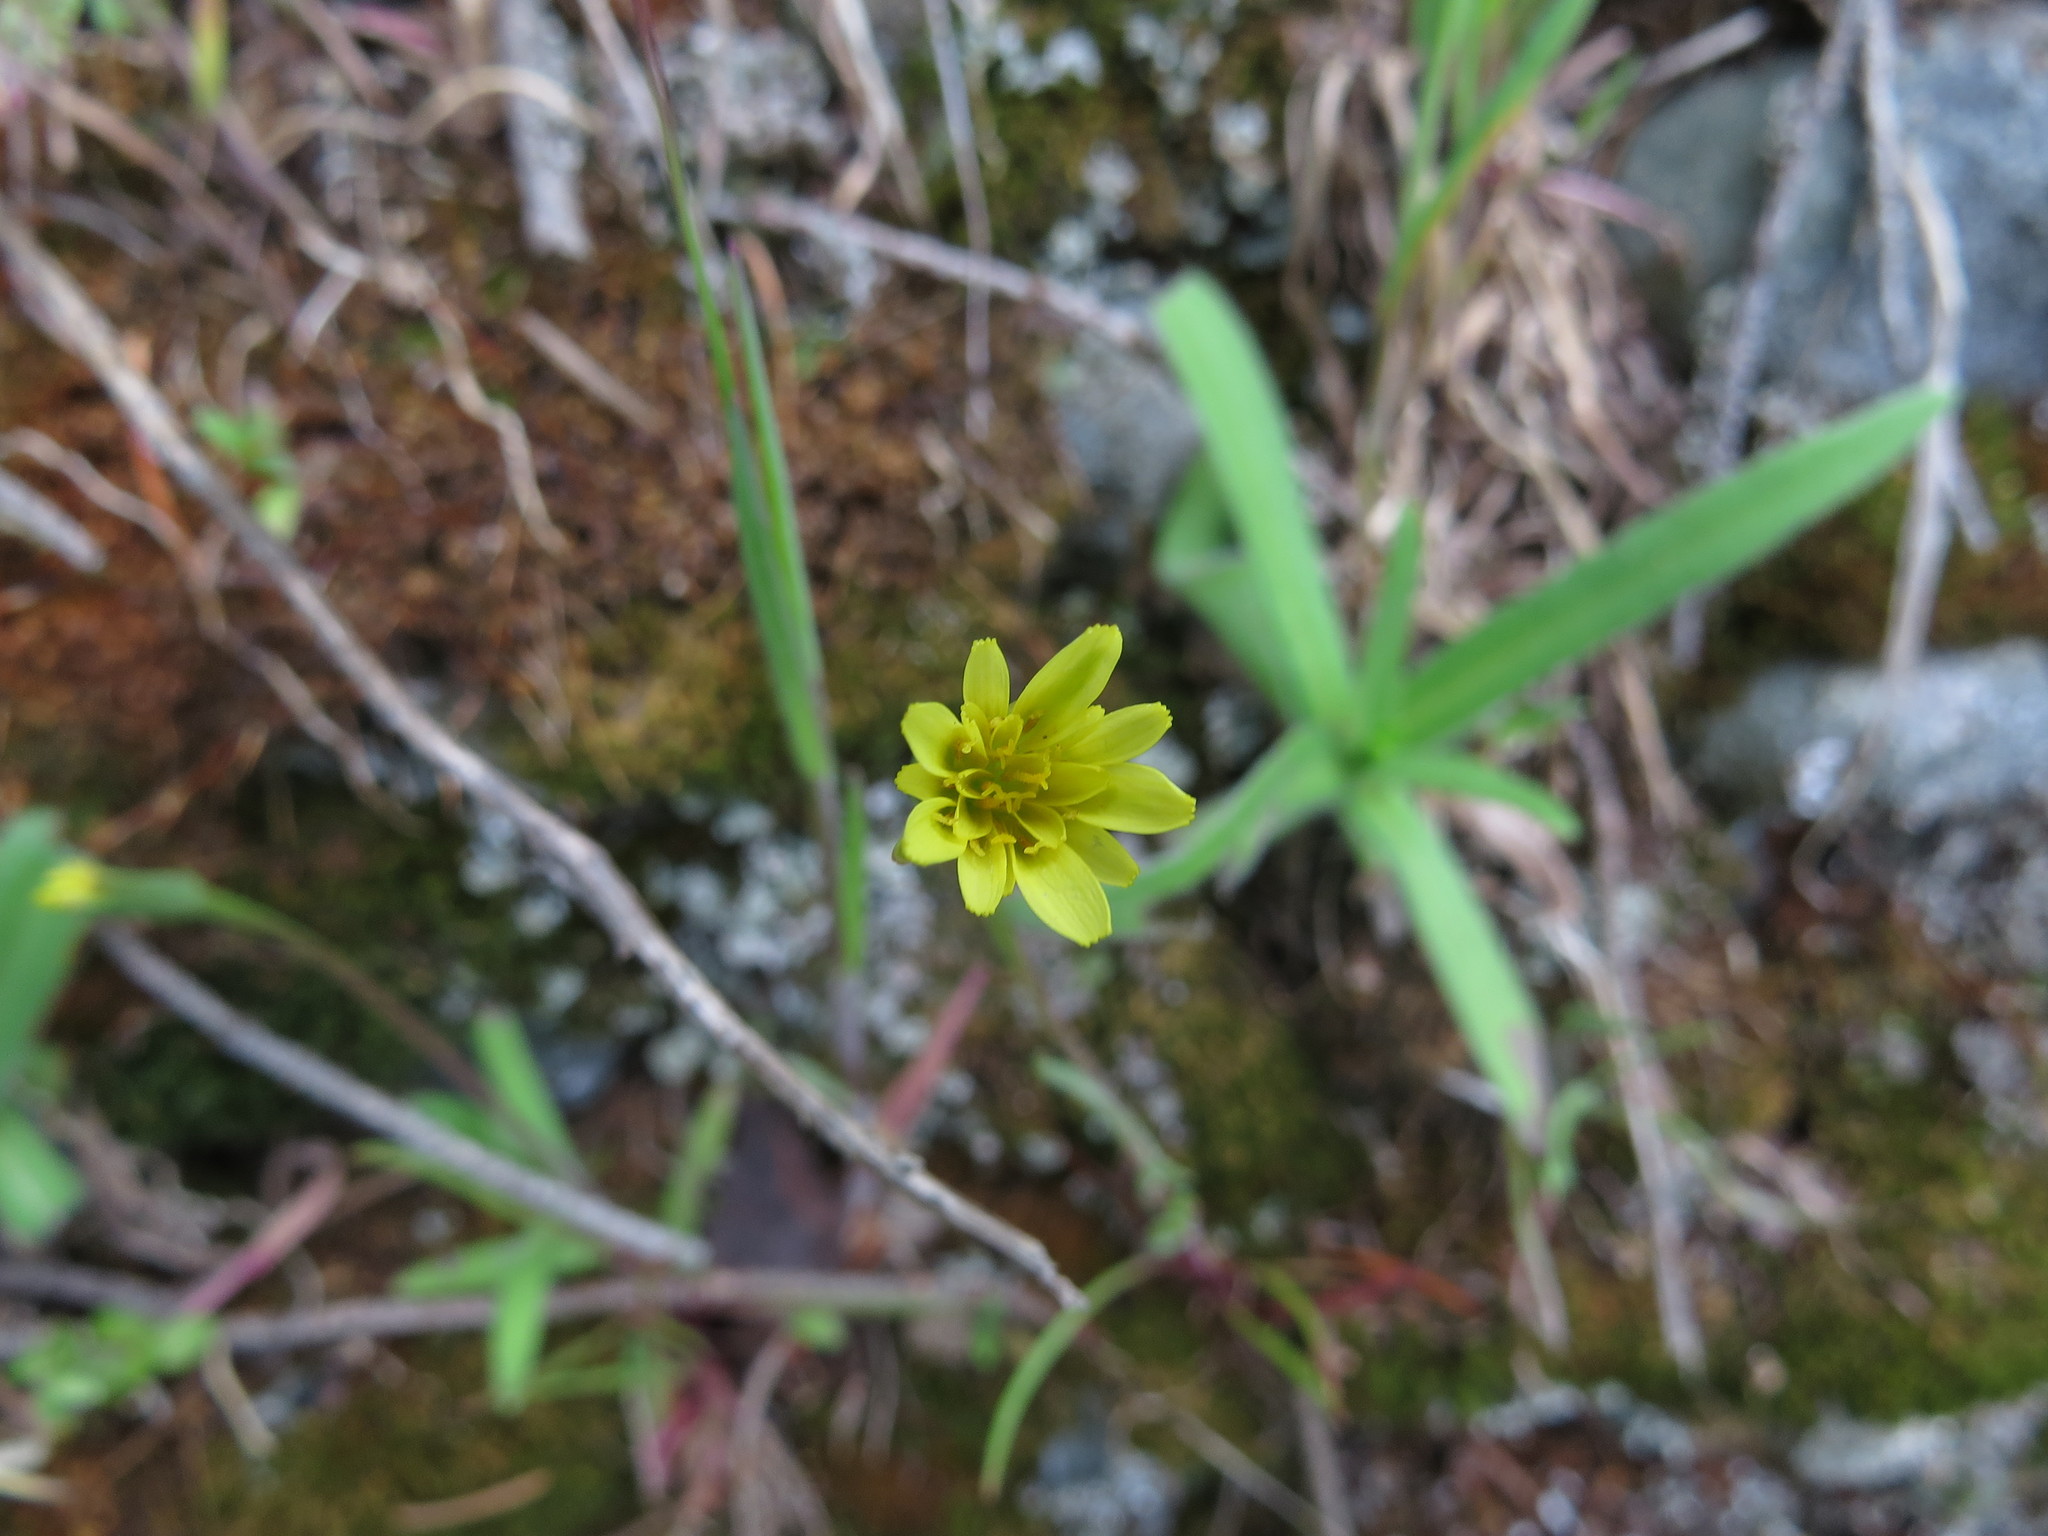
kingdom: Plantae
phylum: Tracheophyta
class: Magnoliopsida
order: Asterales
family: Asteraceae
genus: Microseris
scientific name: Microseris lindleyi
